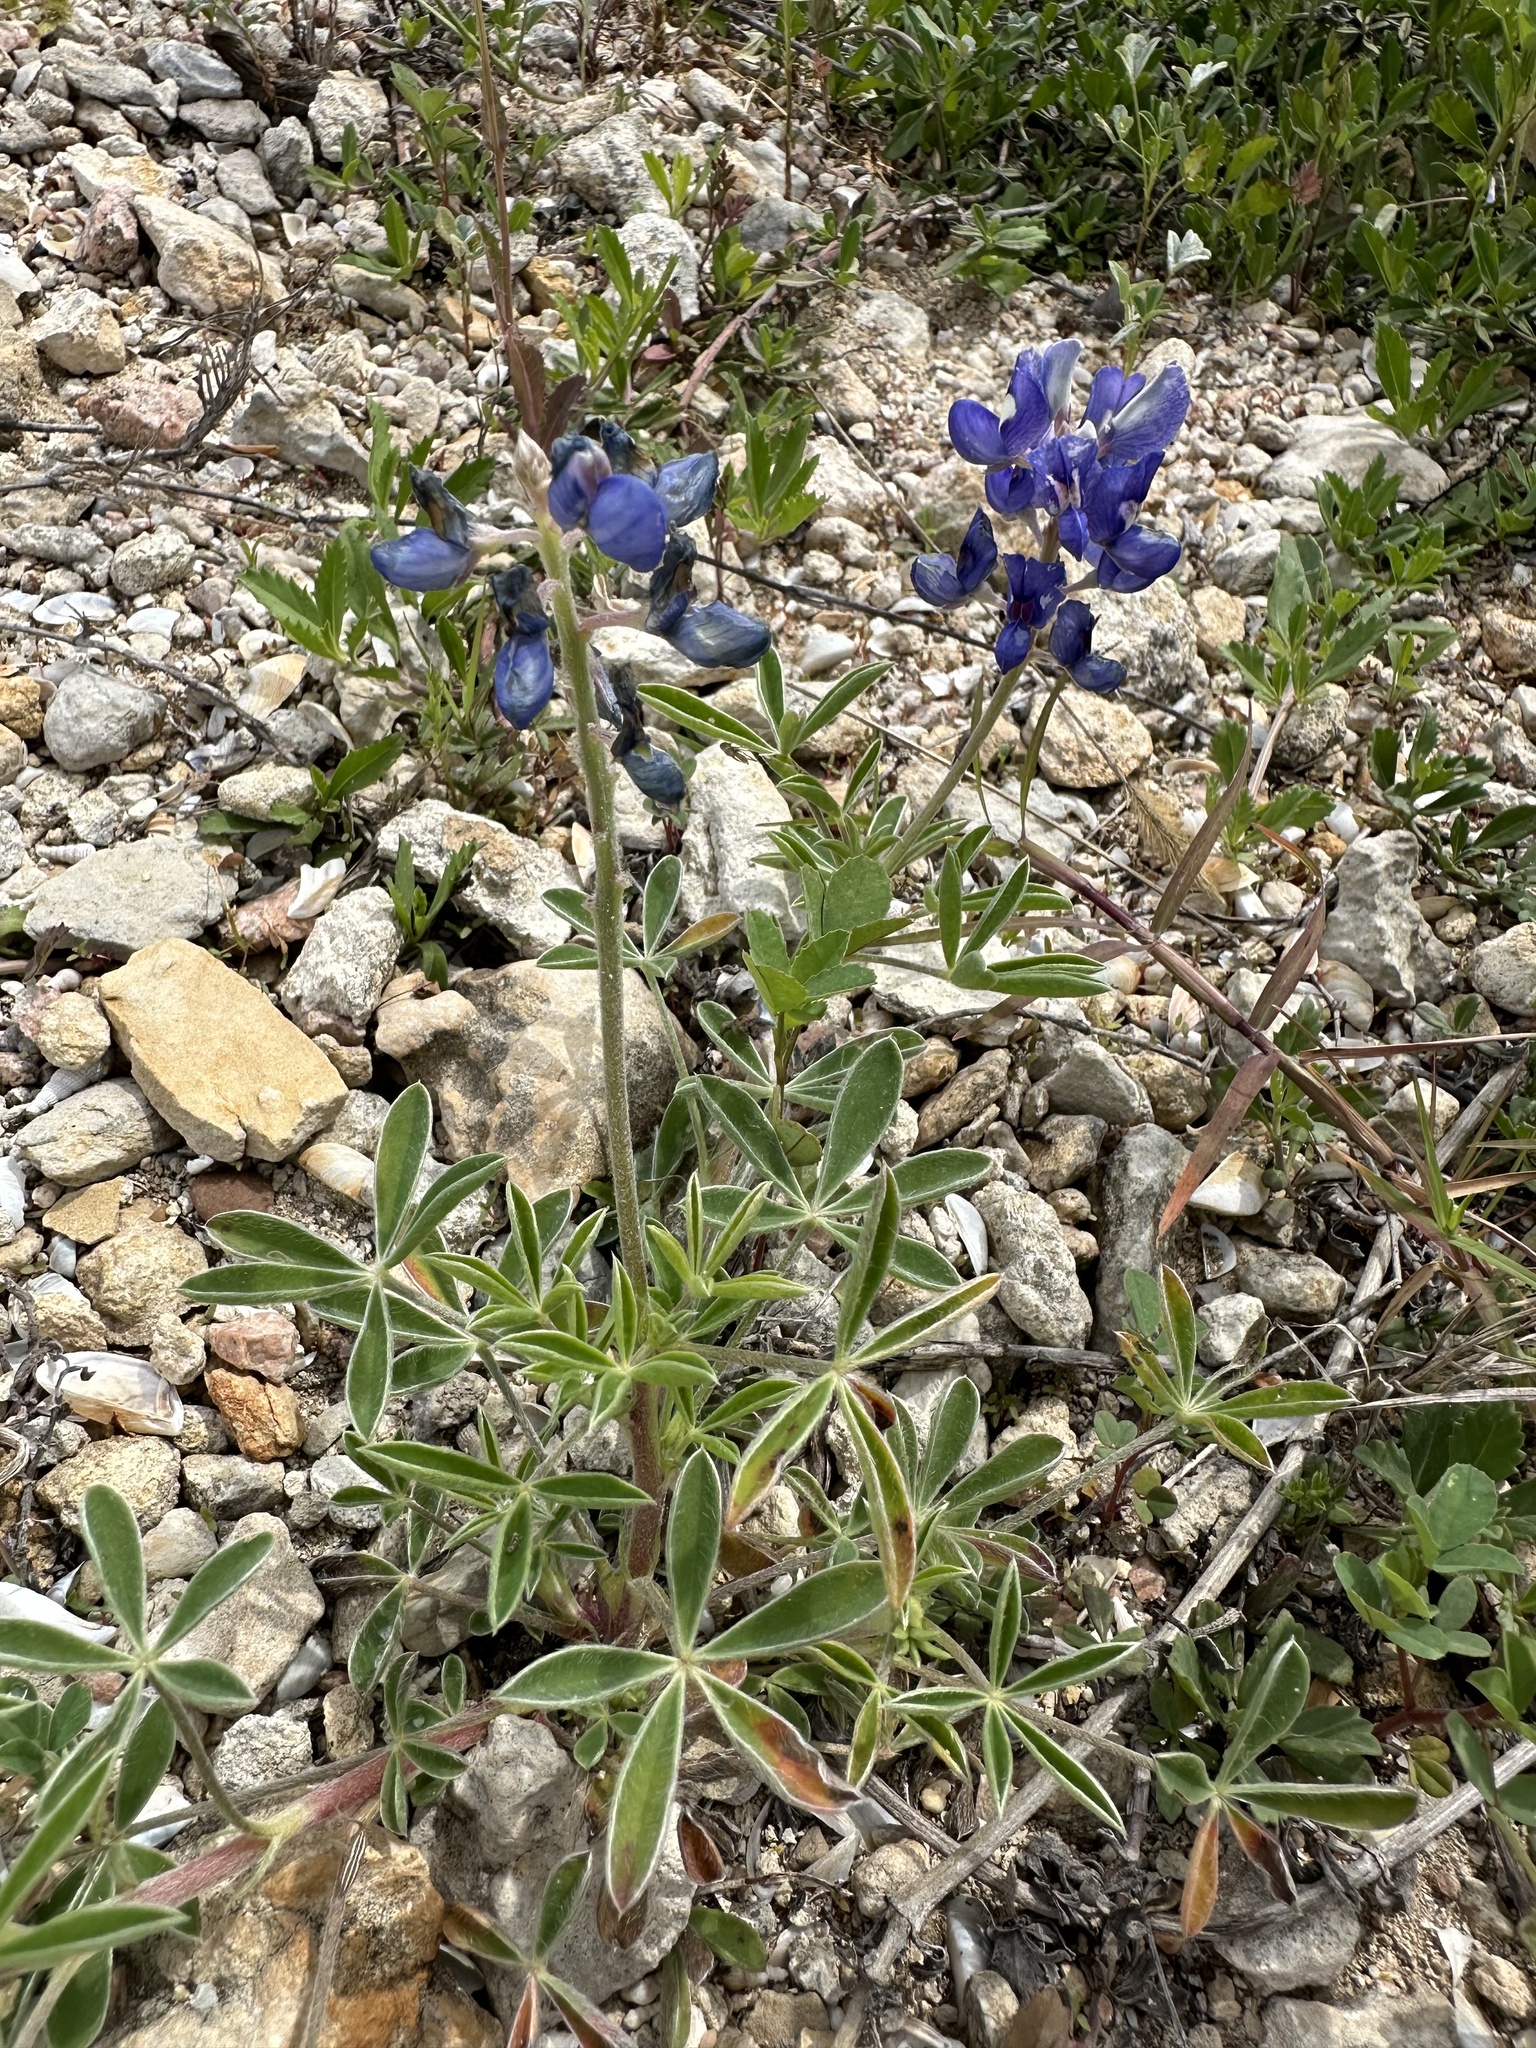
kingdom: Plantae
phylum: Tracheophyta
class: Magnoliopsida
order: Fabales
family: Fabaceae
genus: Lupinus
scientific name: Lupinus texensis
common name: Texas bluebonnet
